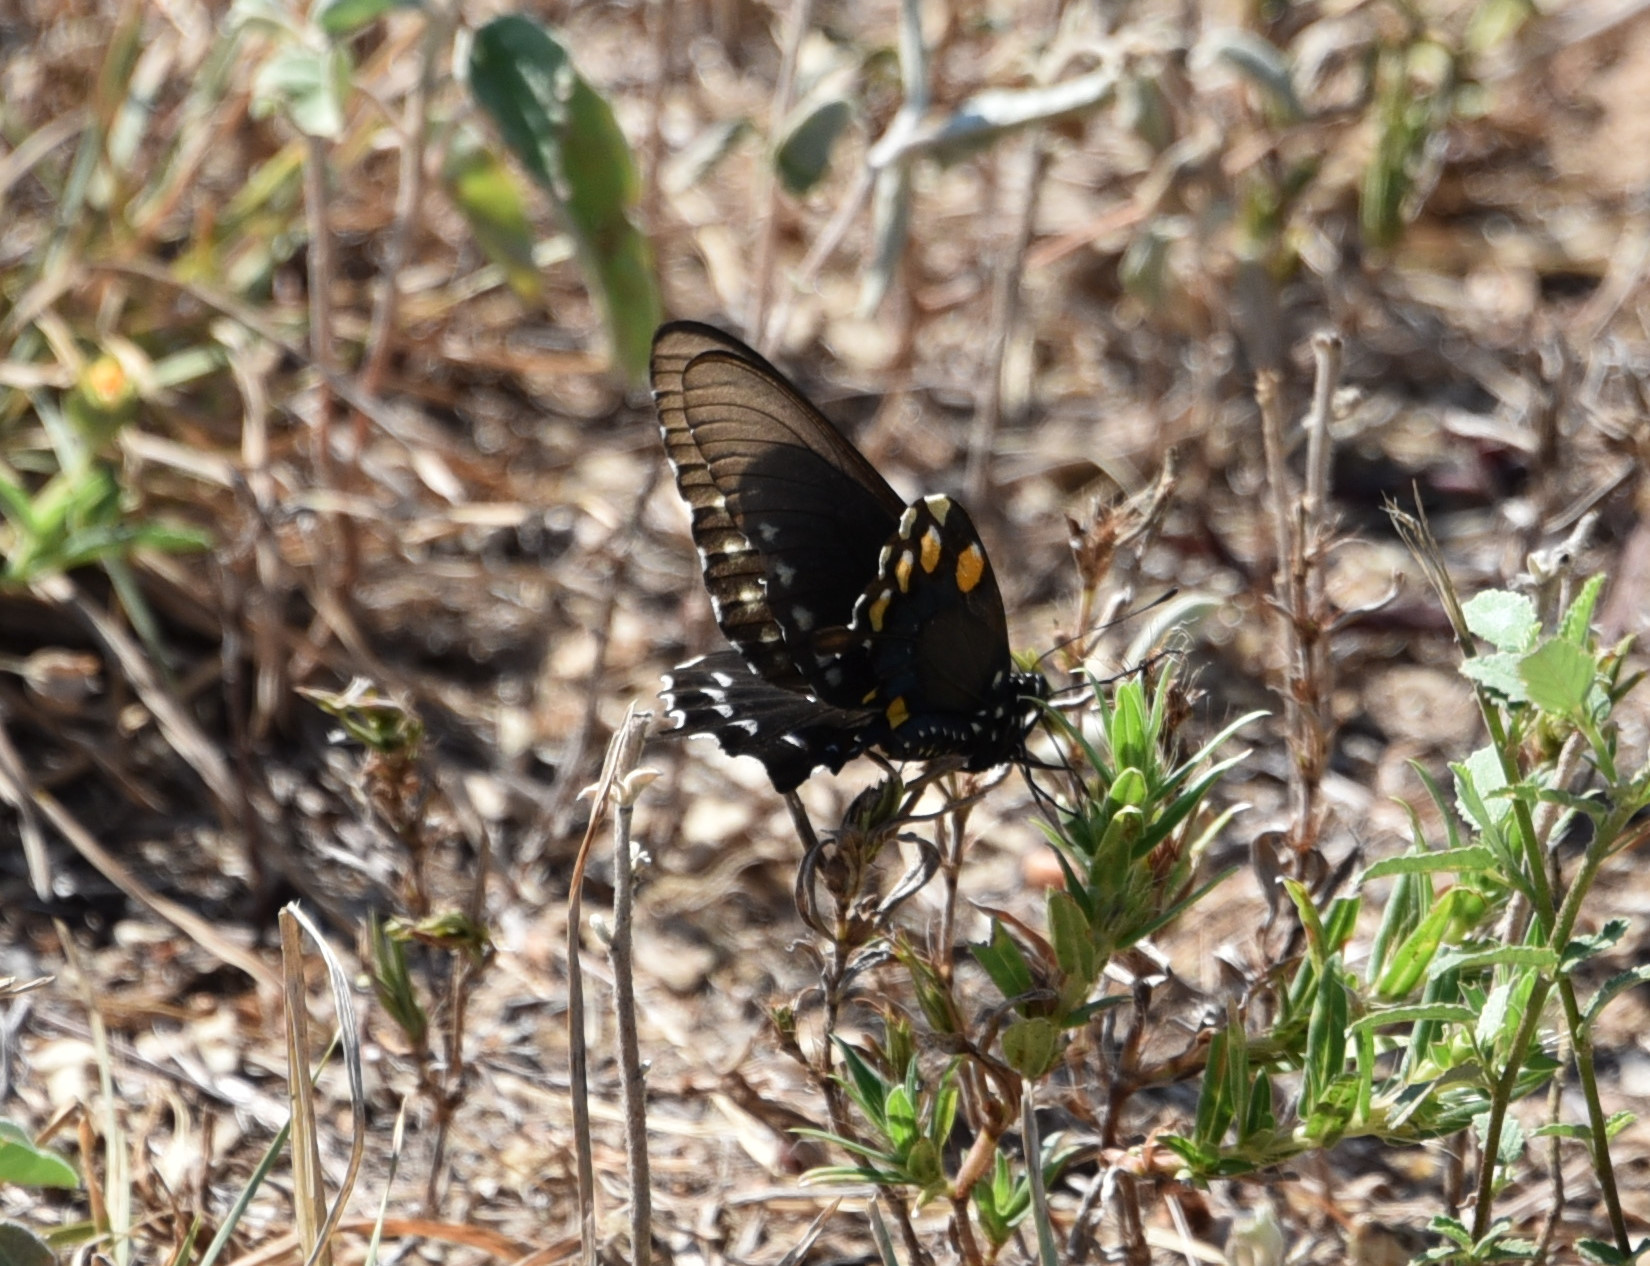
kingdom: Animalia
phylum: Arthropoda
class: Insecta
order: Lepidoptera
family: Papilionidae
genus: Battus
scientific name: Battus philenor
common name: Pipevine swallowtail
